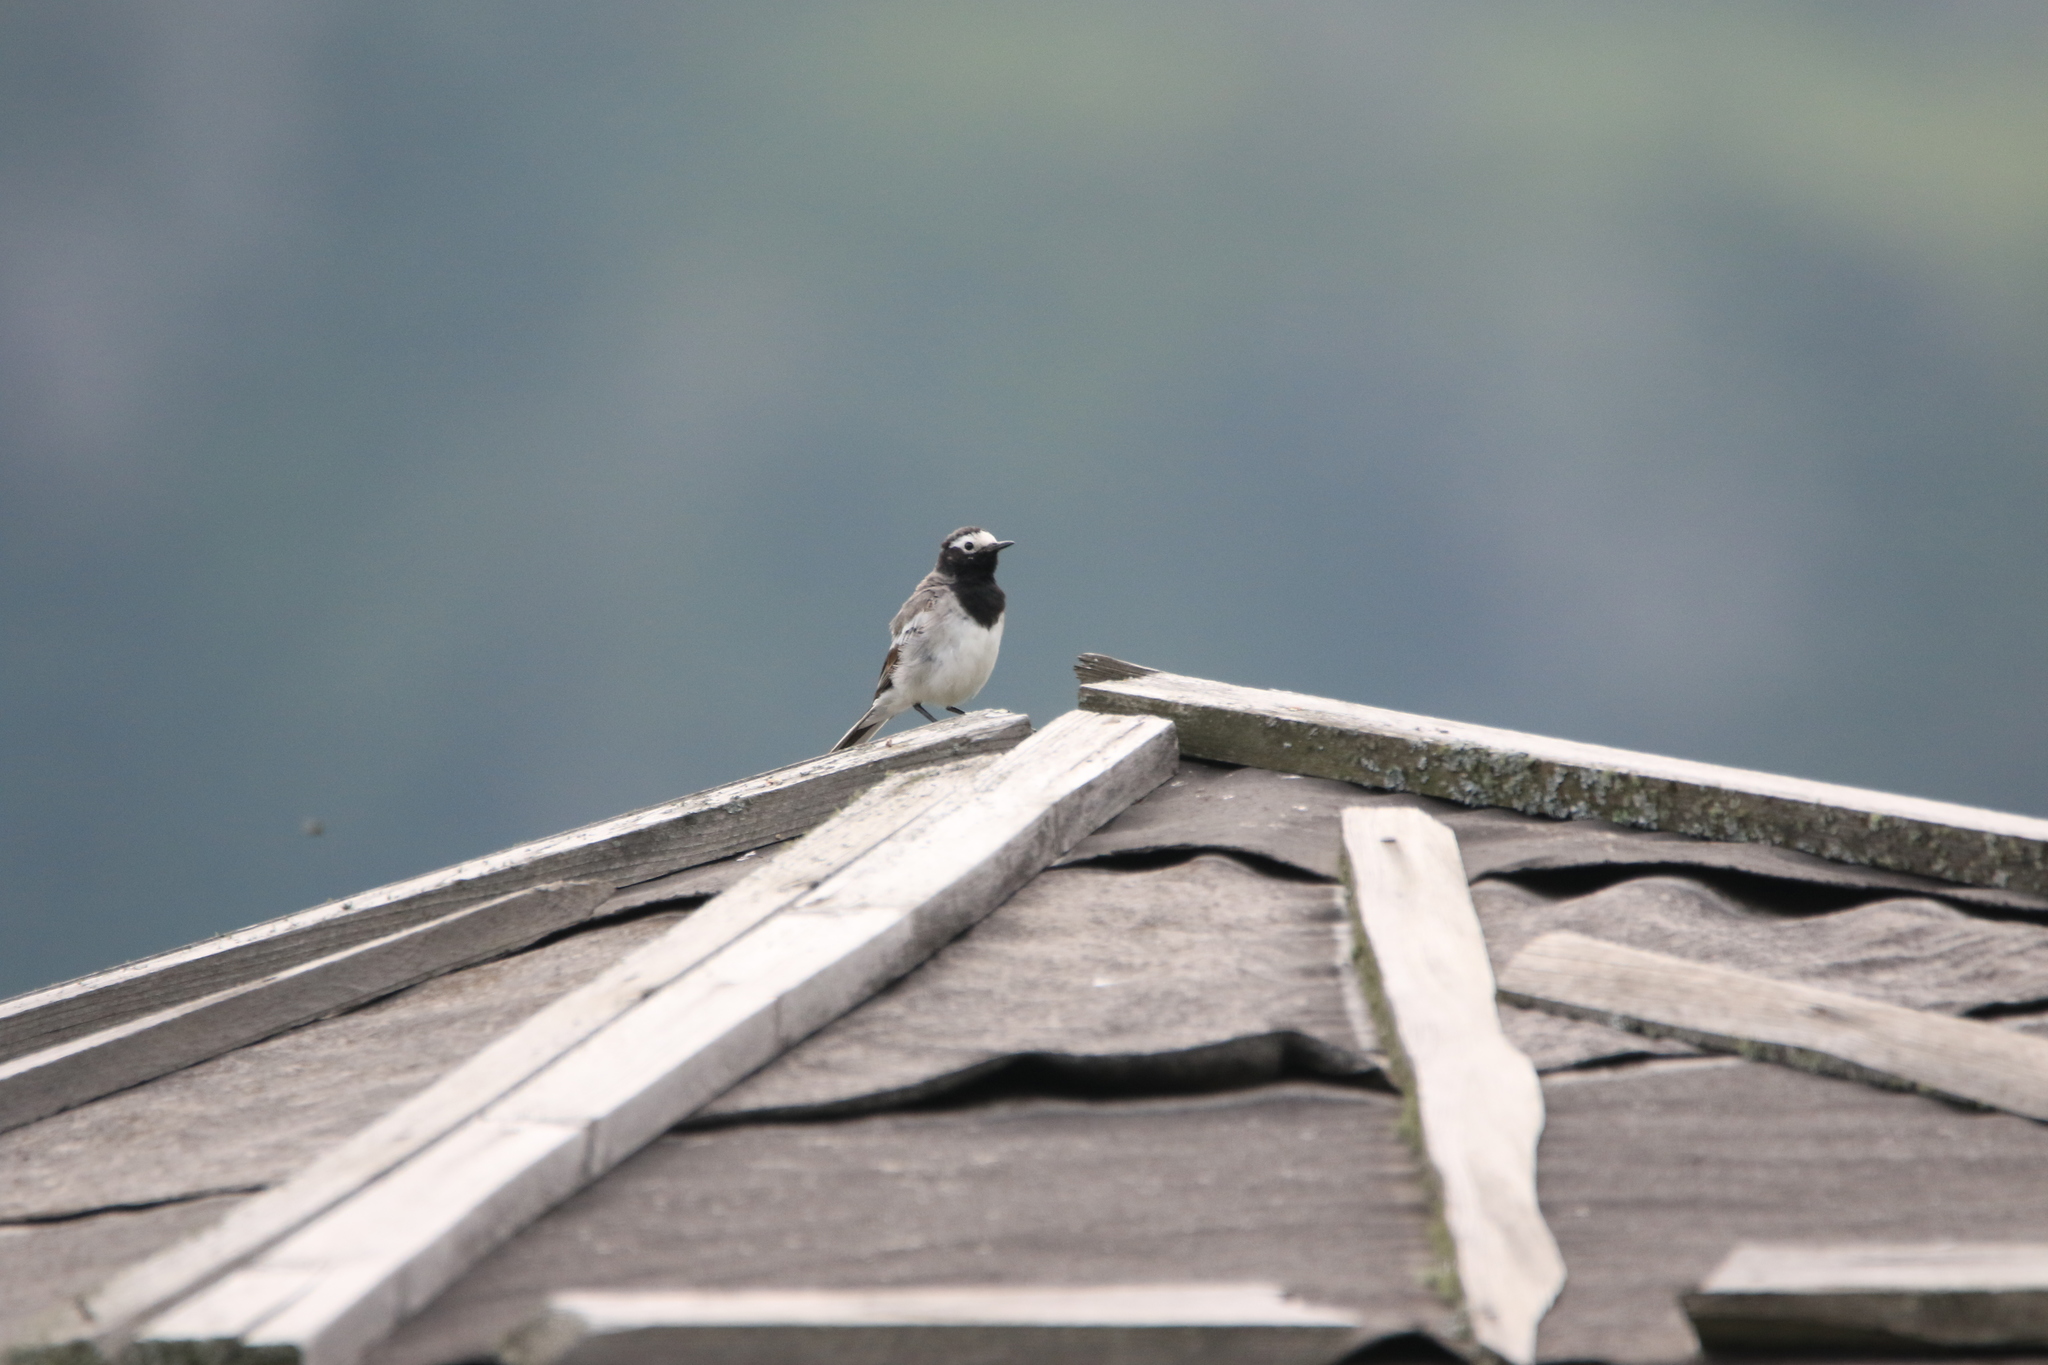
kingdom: Animalia
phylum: Chordata
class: Aves
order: Passeriformes
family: Motacillidae
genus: Motacilla
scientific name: Motacilla alba
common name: White wagtail
